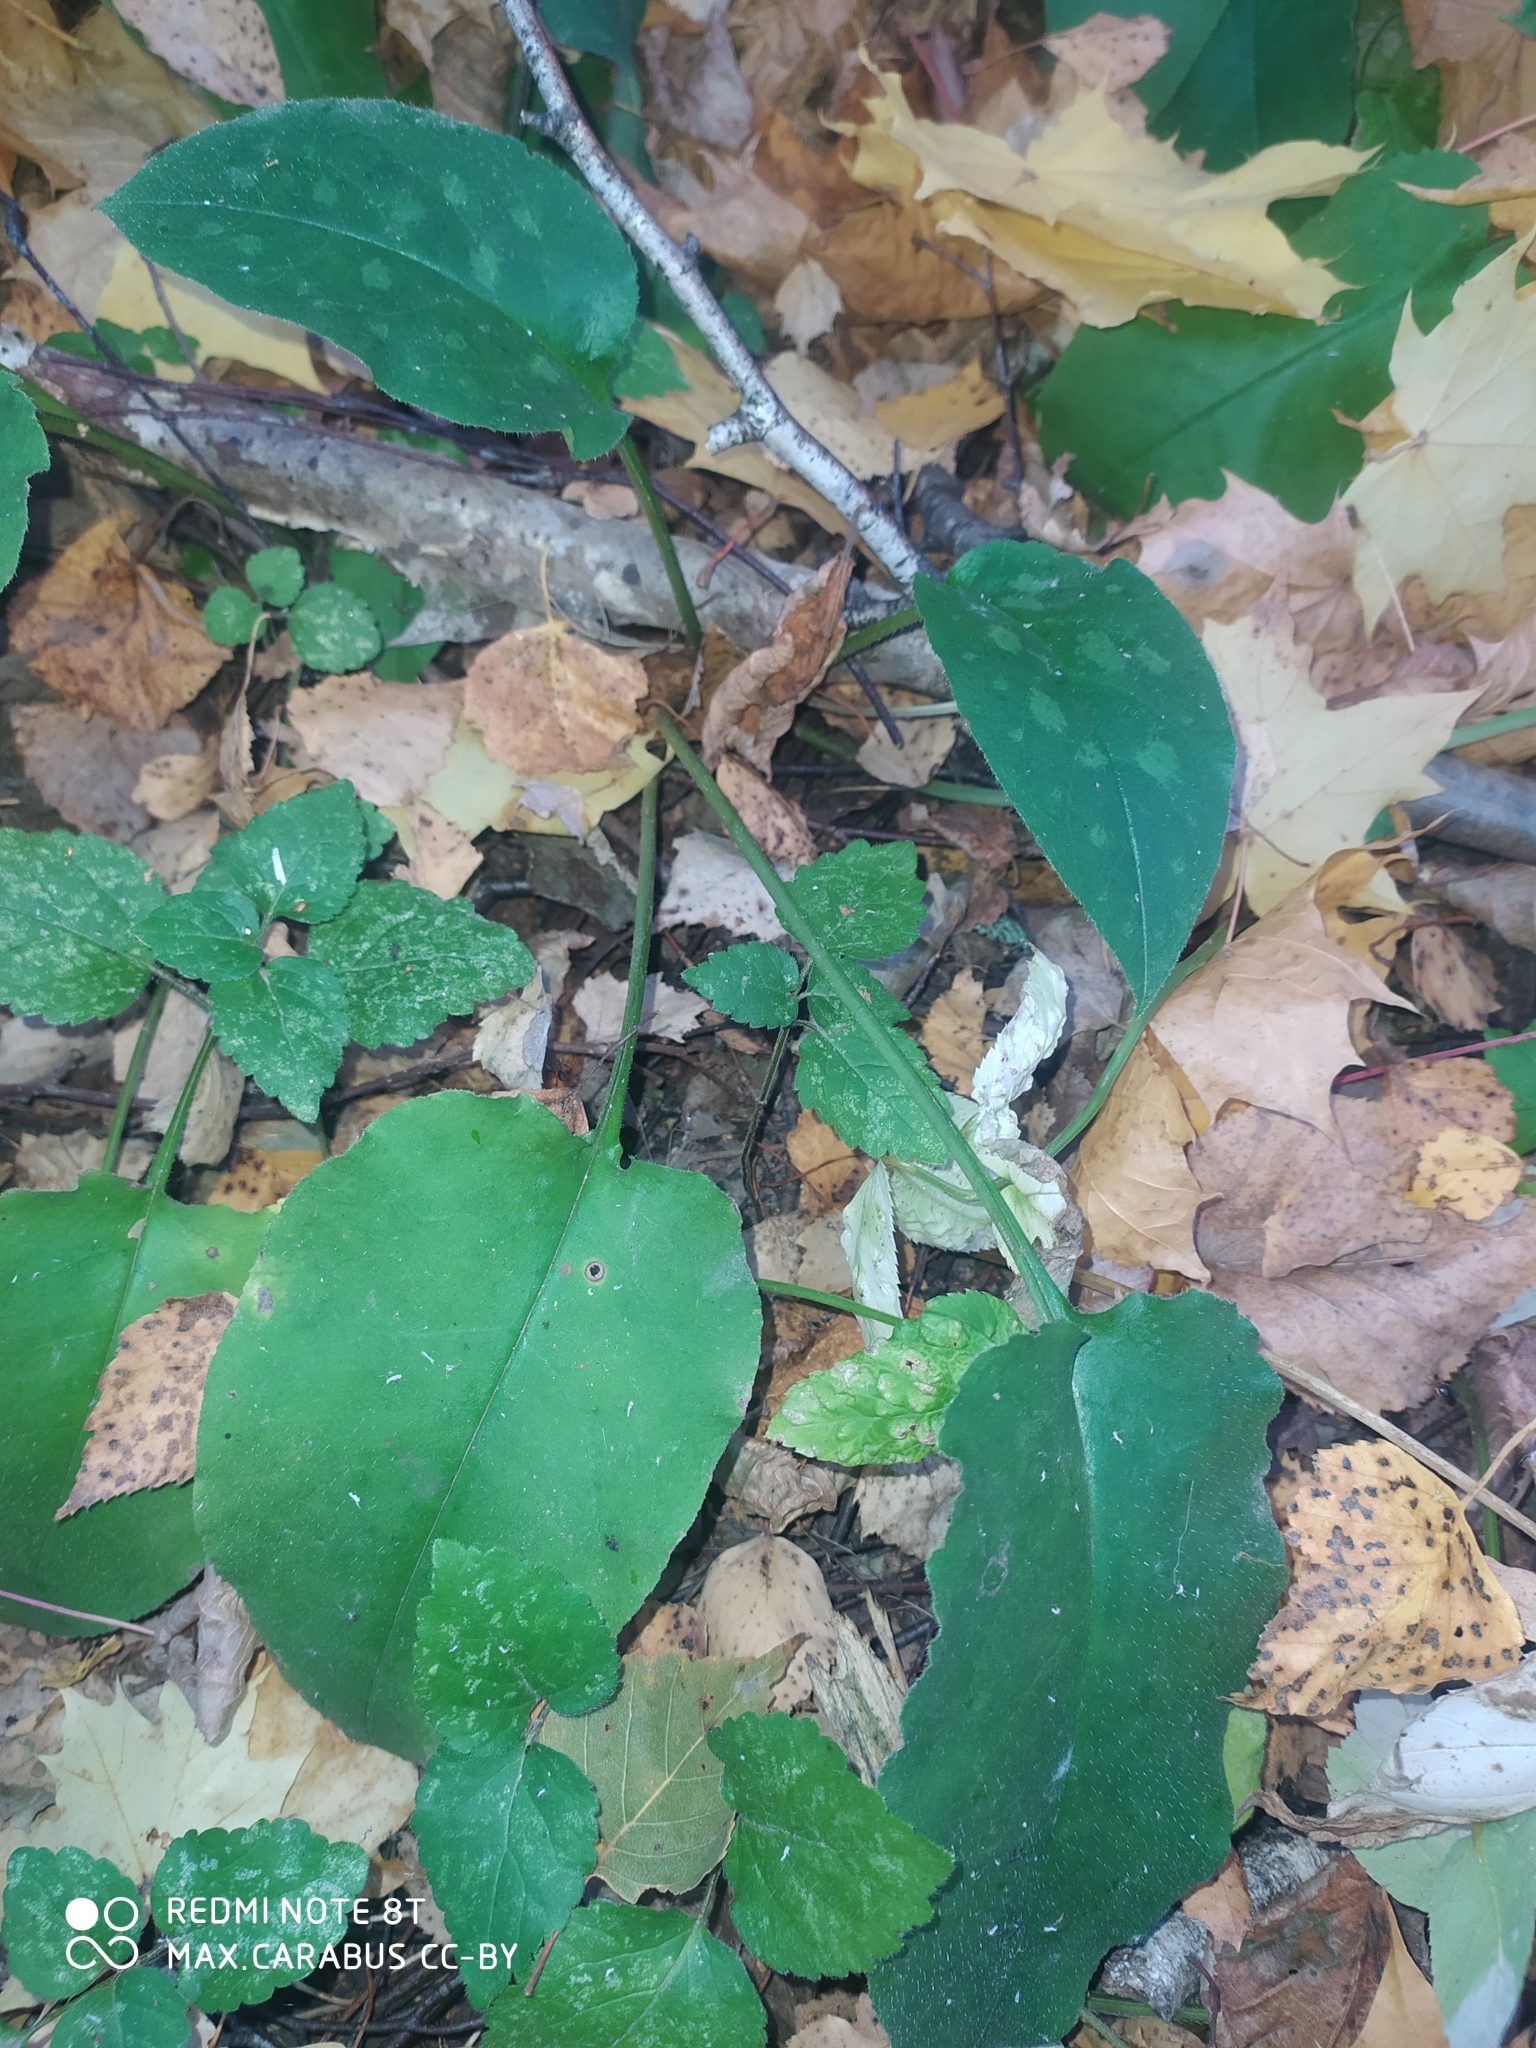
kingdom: Plantae
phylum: Tracheophyta
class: Magnoliopsida
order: Boraginales
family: Boraginaceae
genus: Pulmonaria
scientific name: Pulmonaria obscura
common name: Suffolk lungwort
